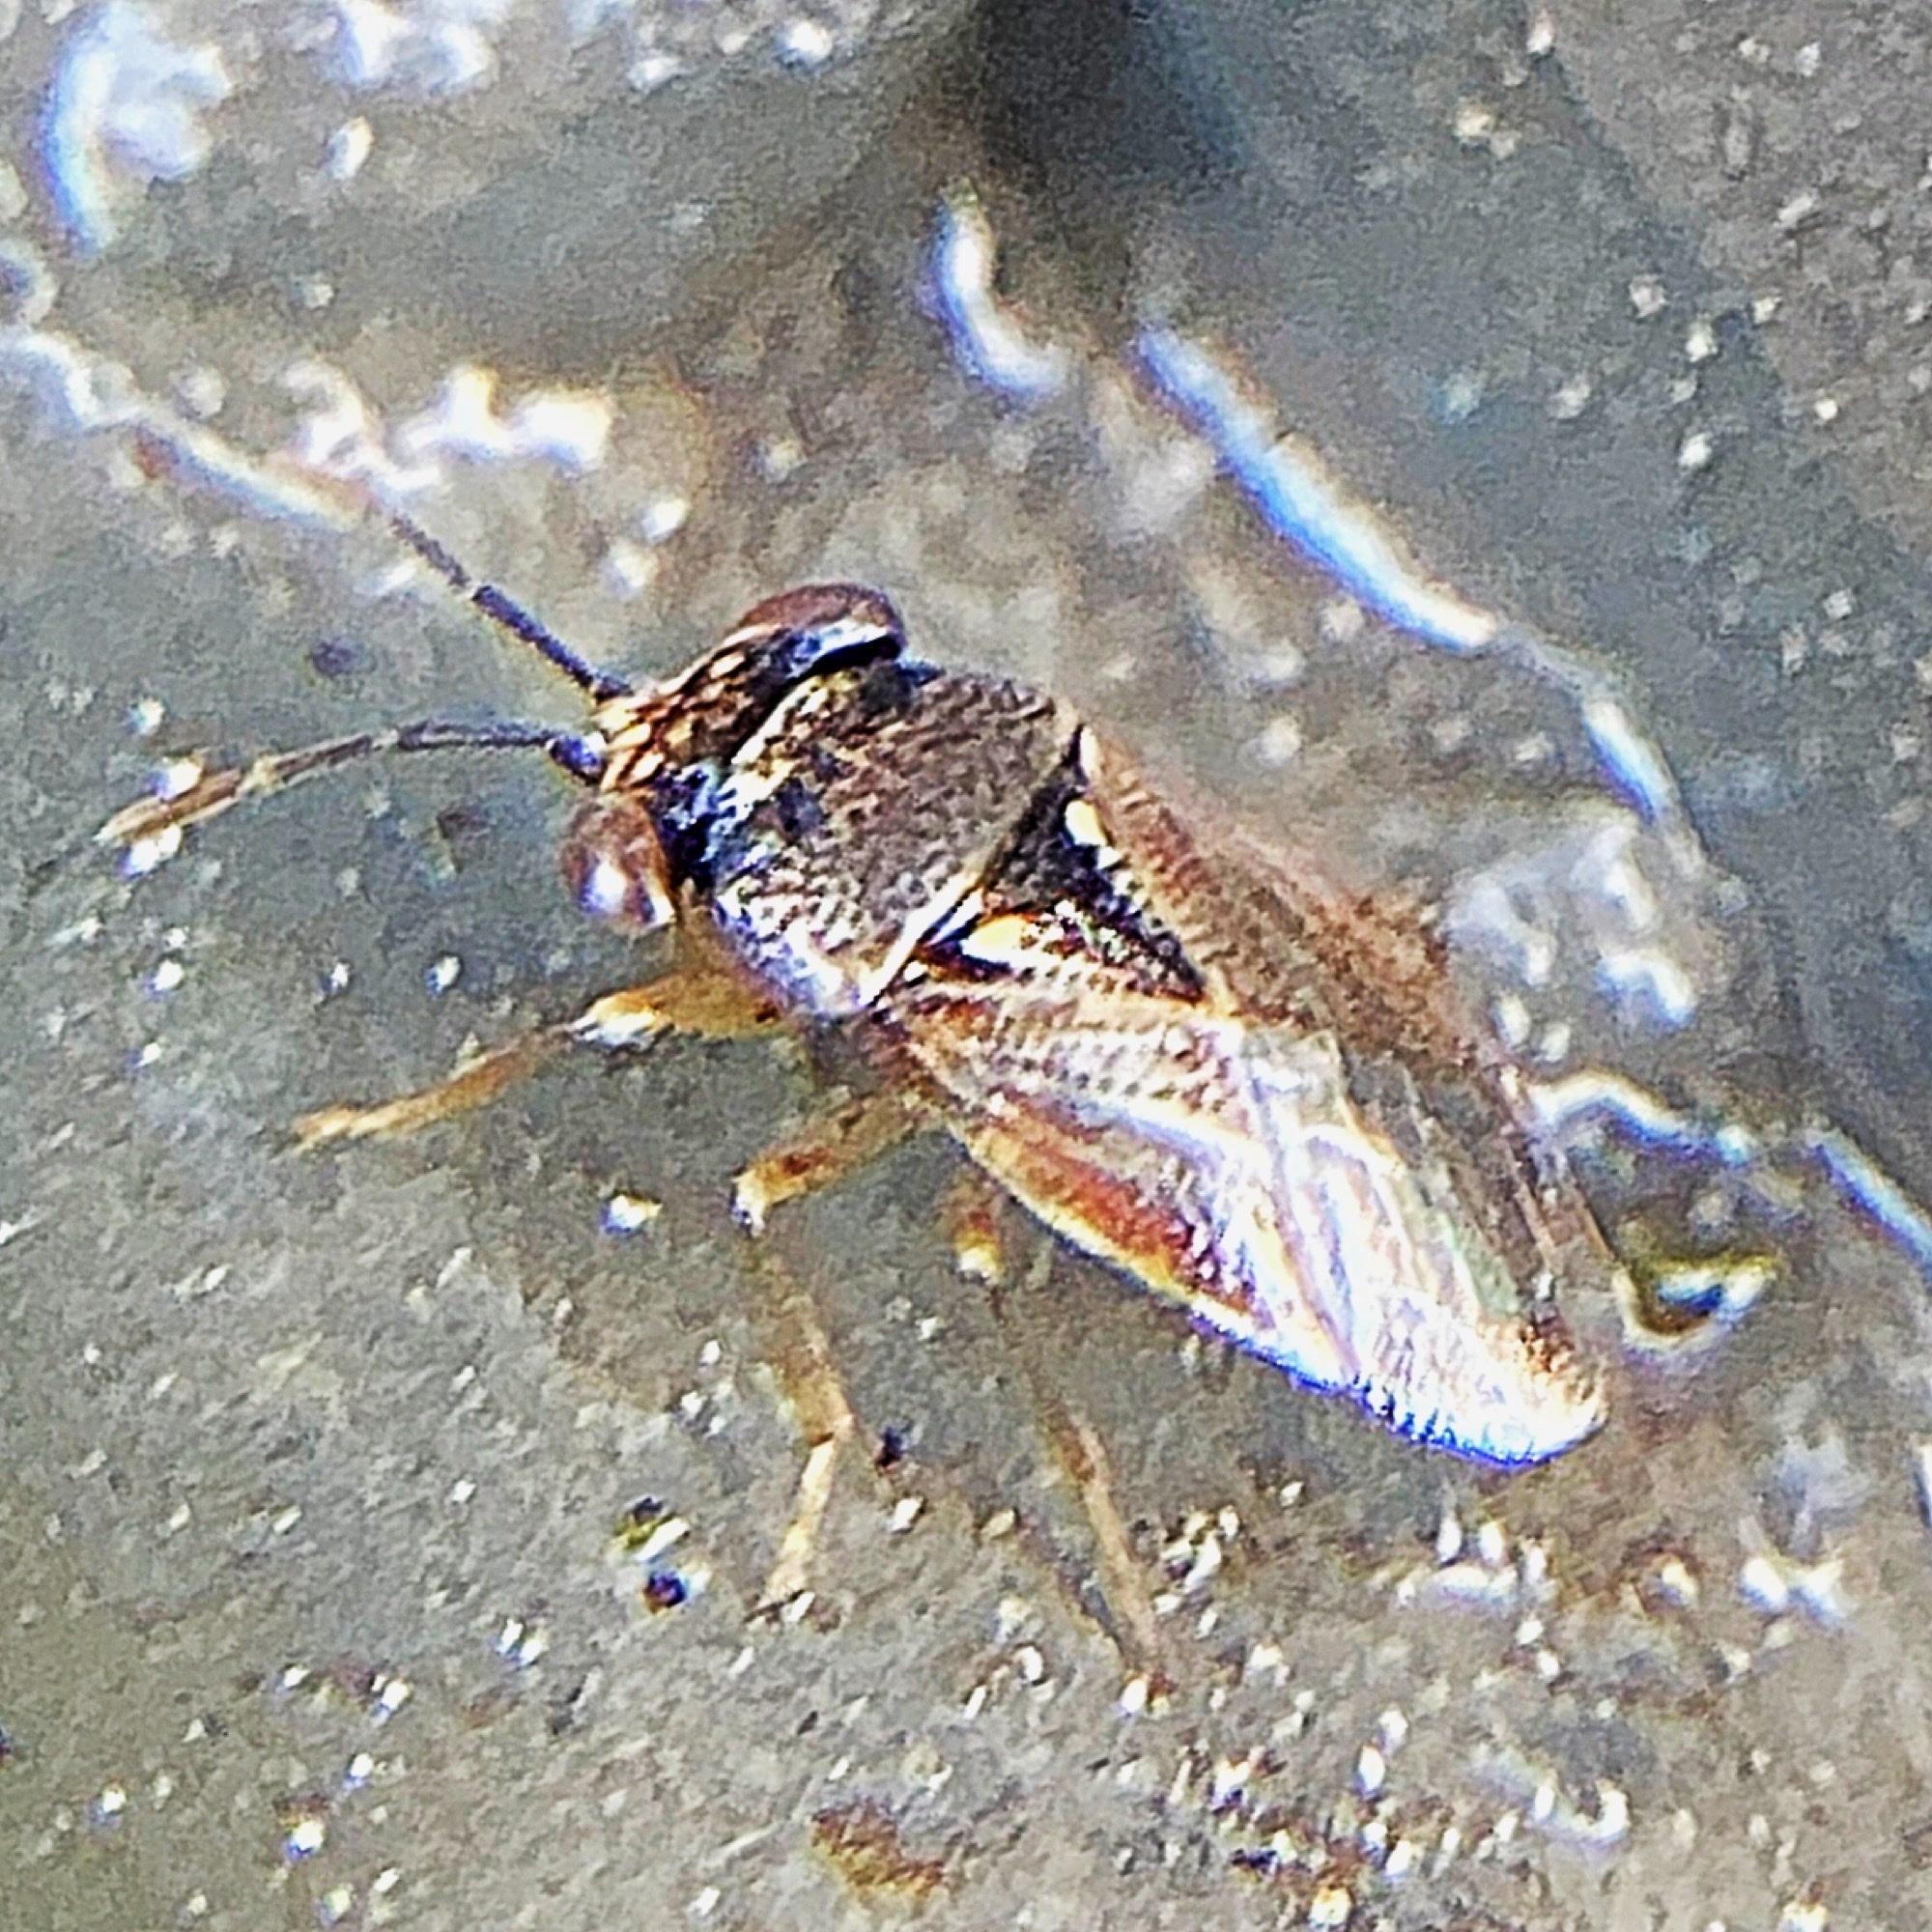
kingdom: Animalia
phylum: Arthropoda
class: Insecta
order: Hemiptera
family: Geocoridae
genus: Geocoris
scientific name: Geocoris punctipes
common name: Big-eyed bug
